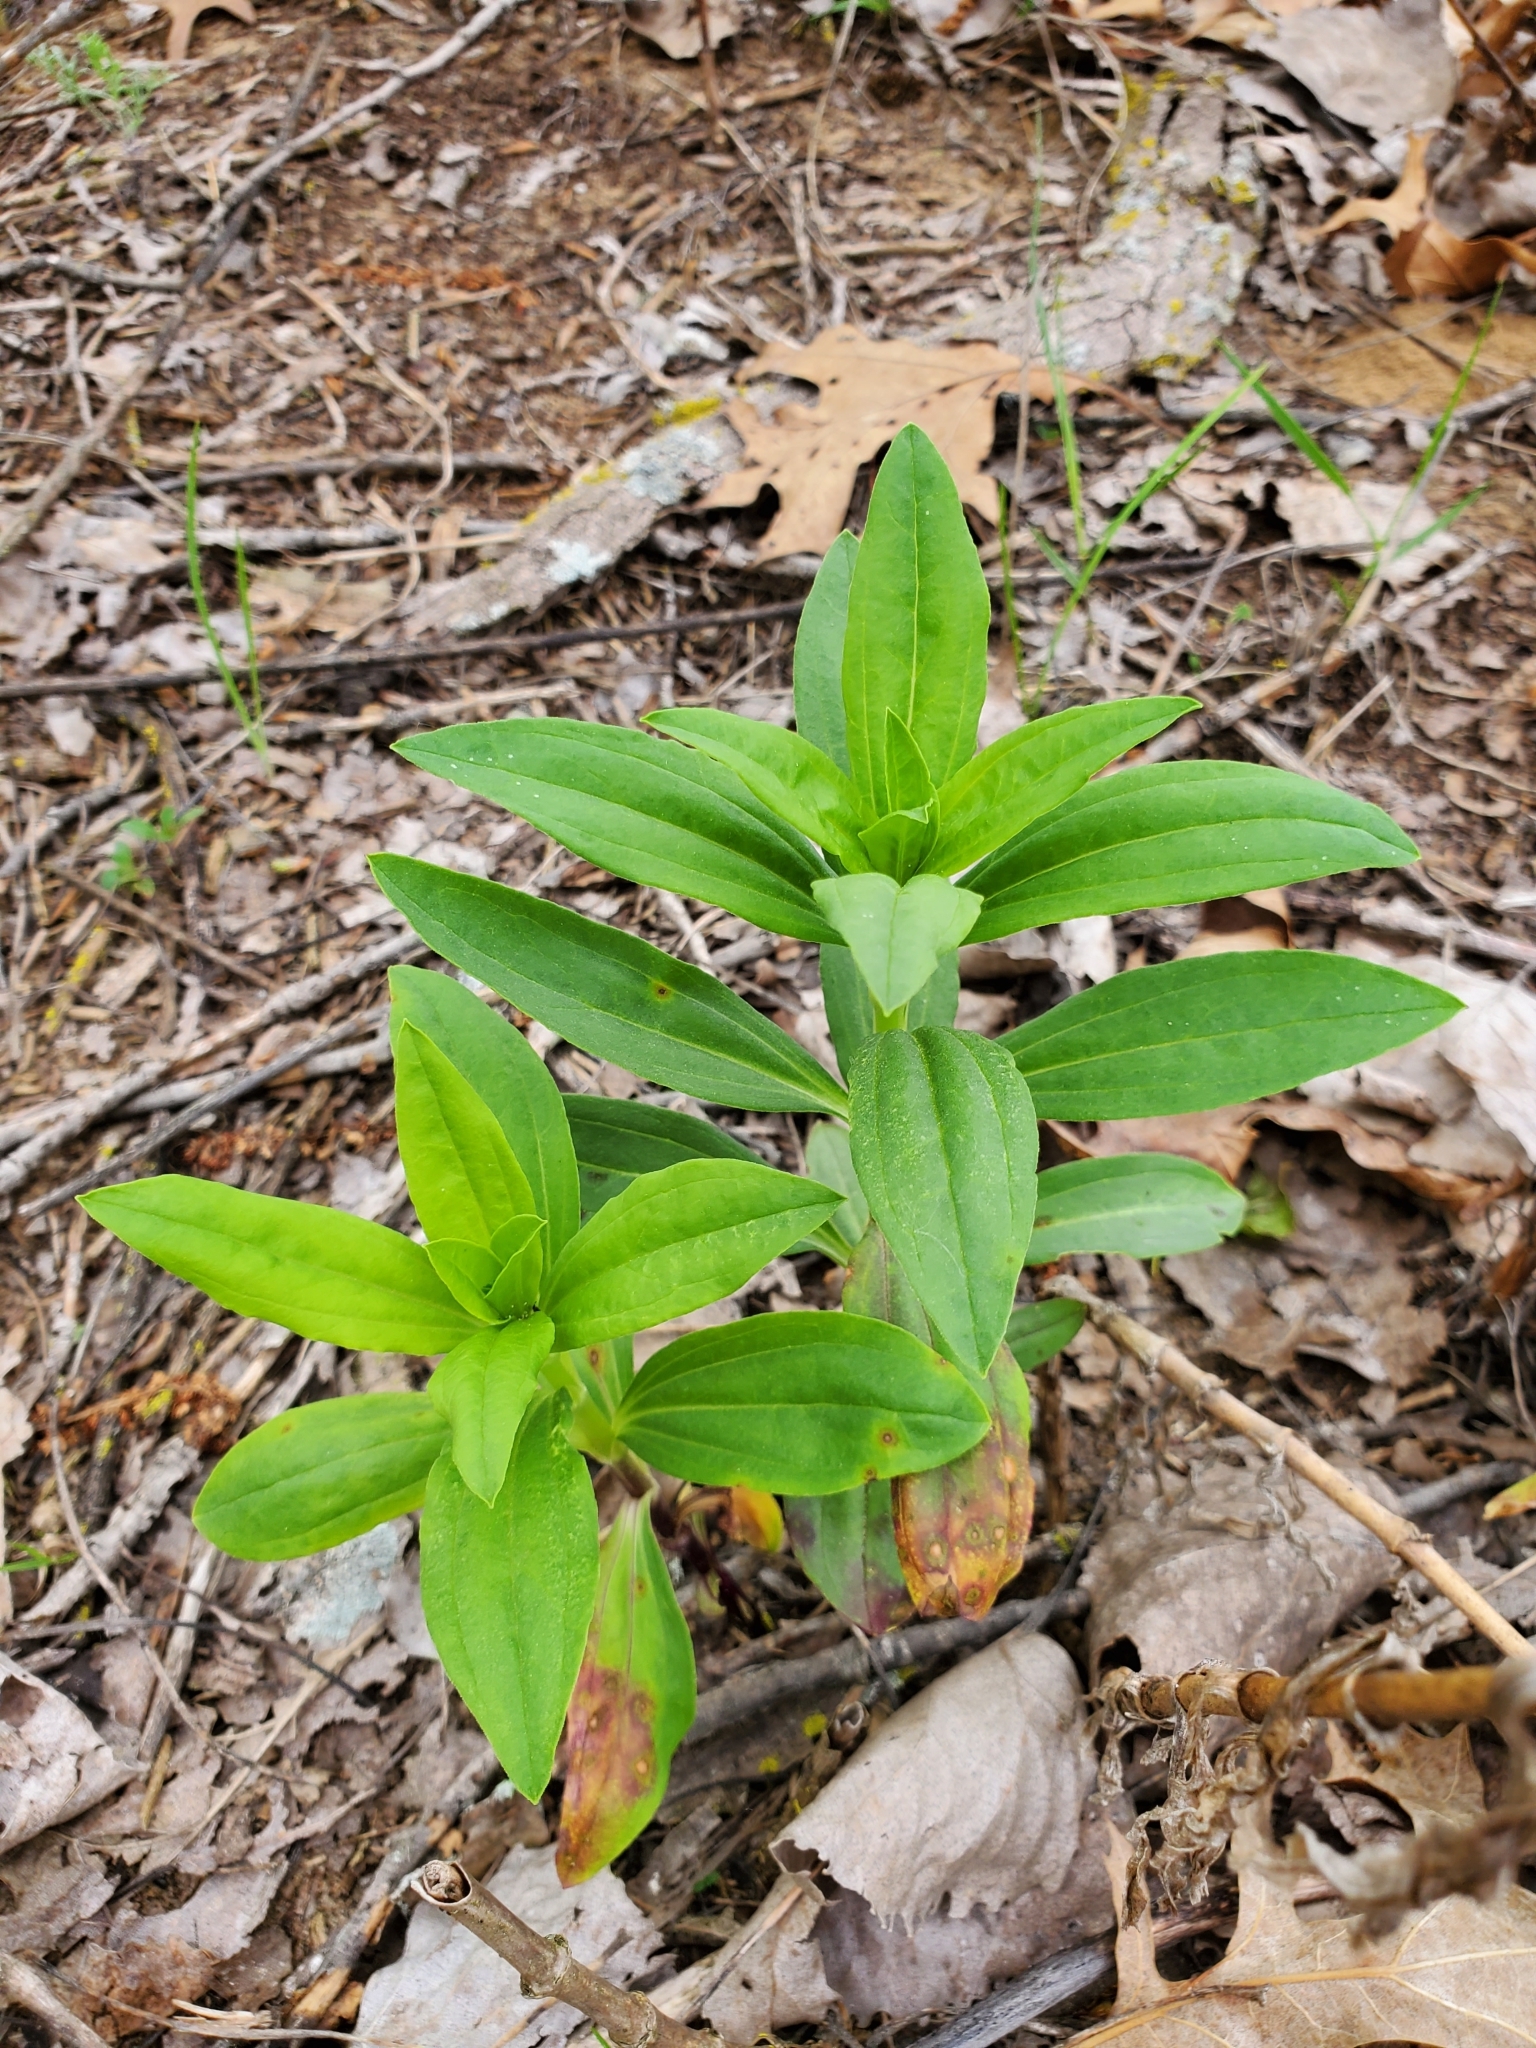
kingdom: Plantae
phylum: Tracheophyta
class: Magnoliopsida
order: Caryophyllales
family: Caryophyllaceae
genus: Saponaria
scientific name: Saponaria officinalis
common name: Soapwort
